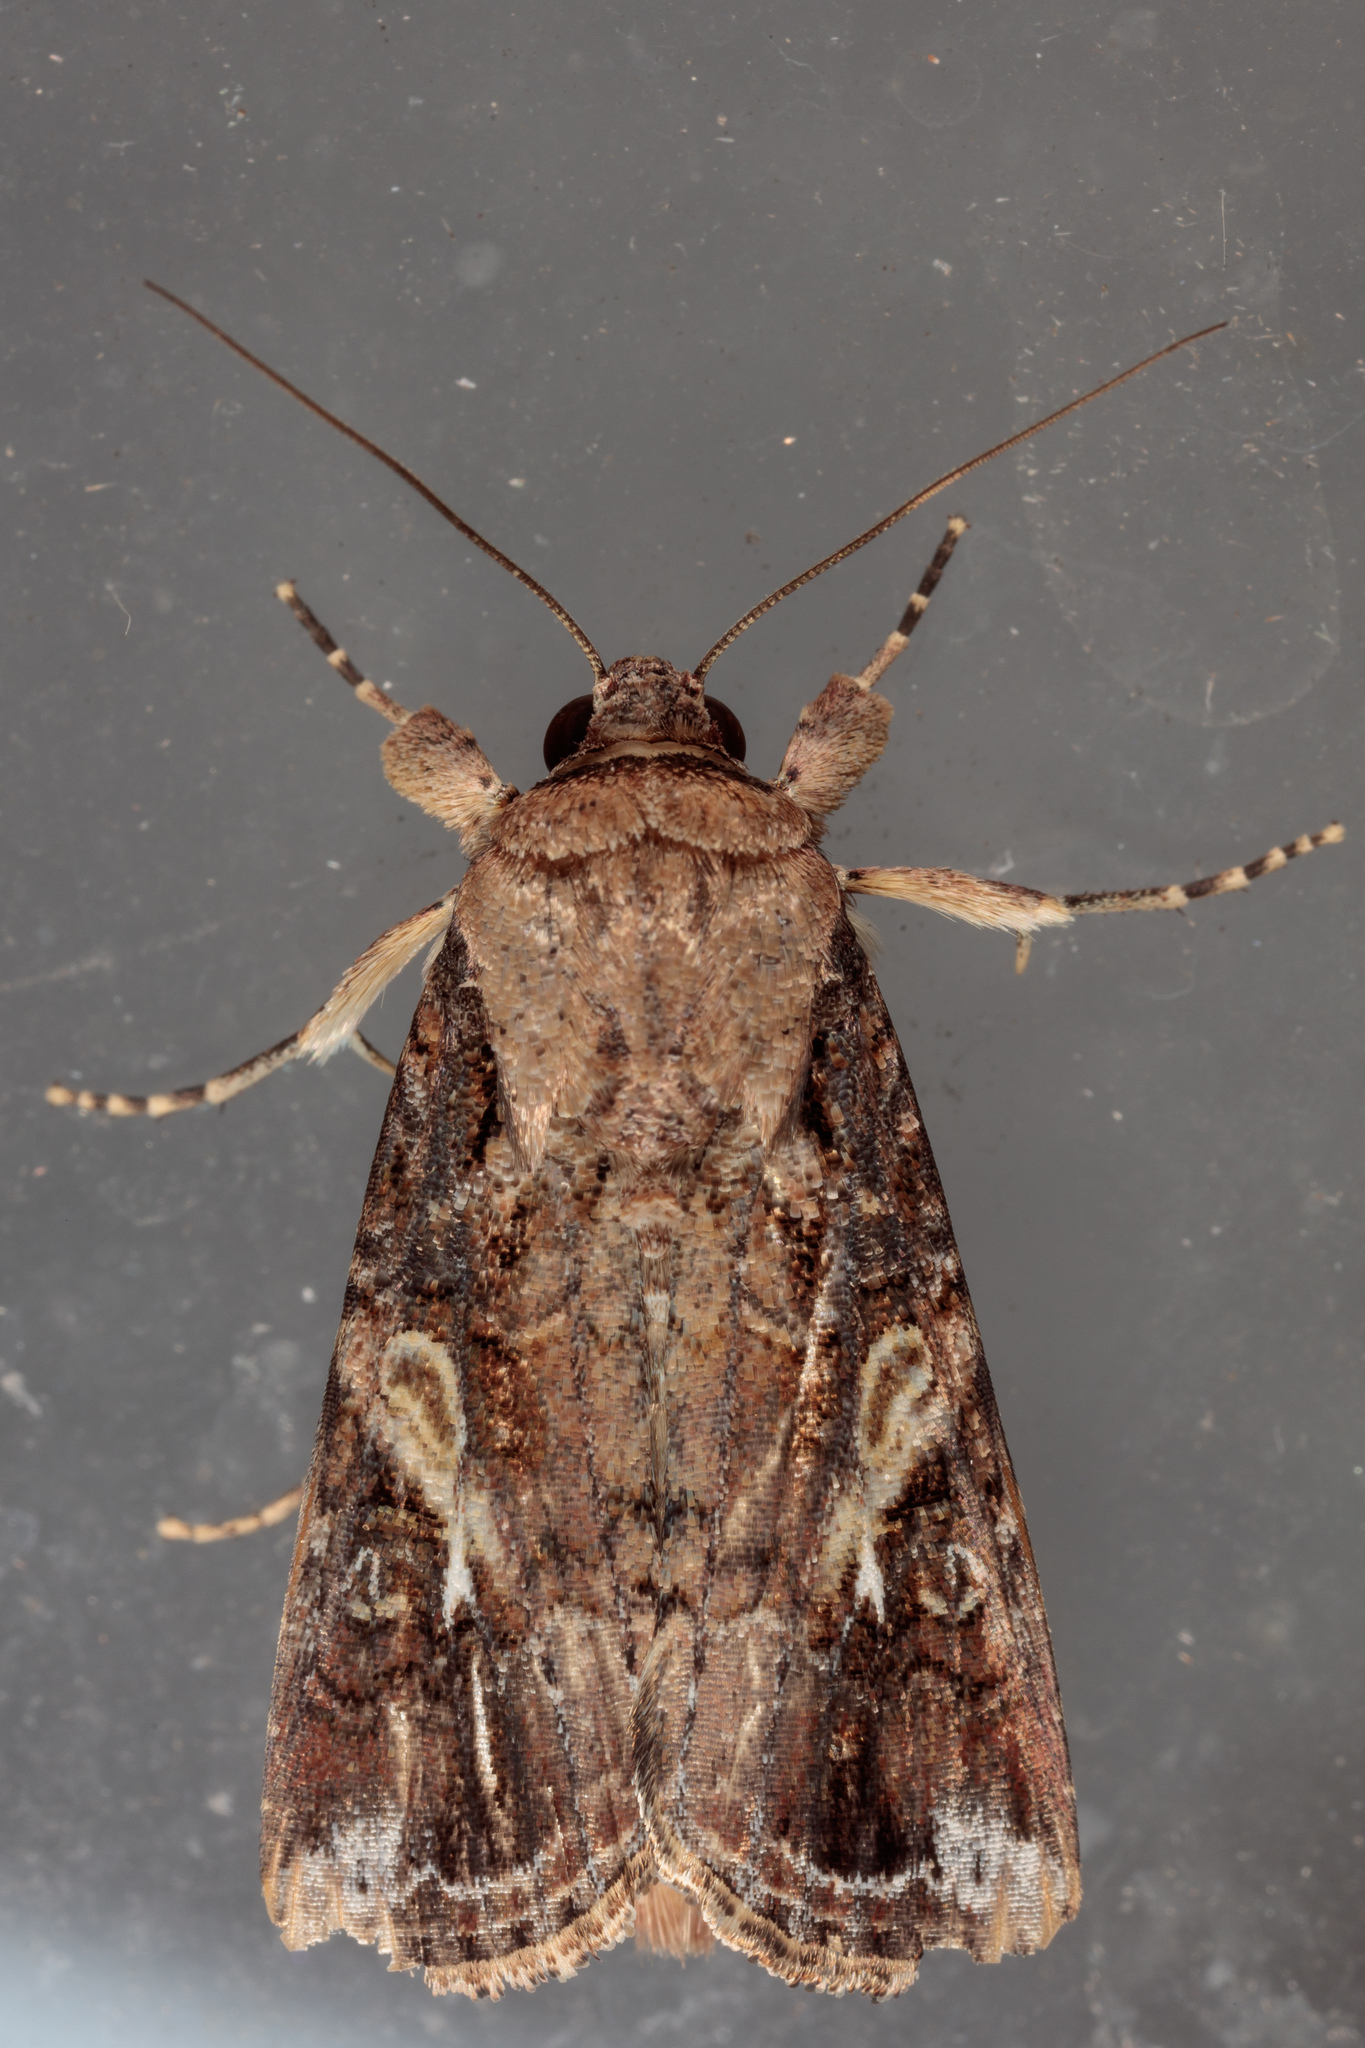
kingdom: Animalia
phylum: Arthropoda
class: Insecta
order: Lepidoptera
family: Noctuidae
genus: Spodoptera
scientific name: Spodoptera frugiperda
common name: Fall armyworm
